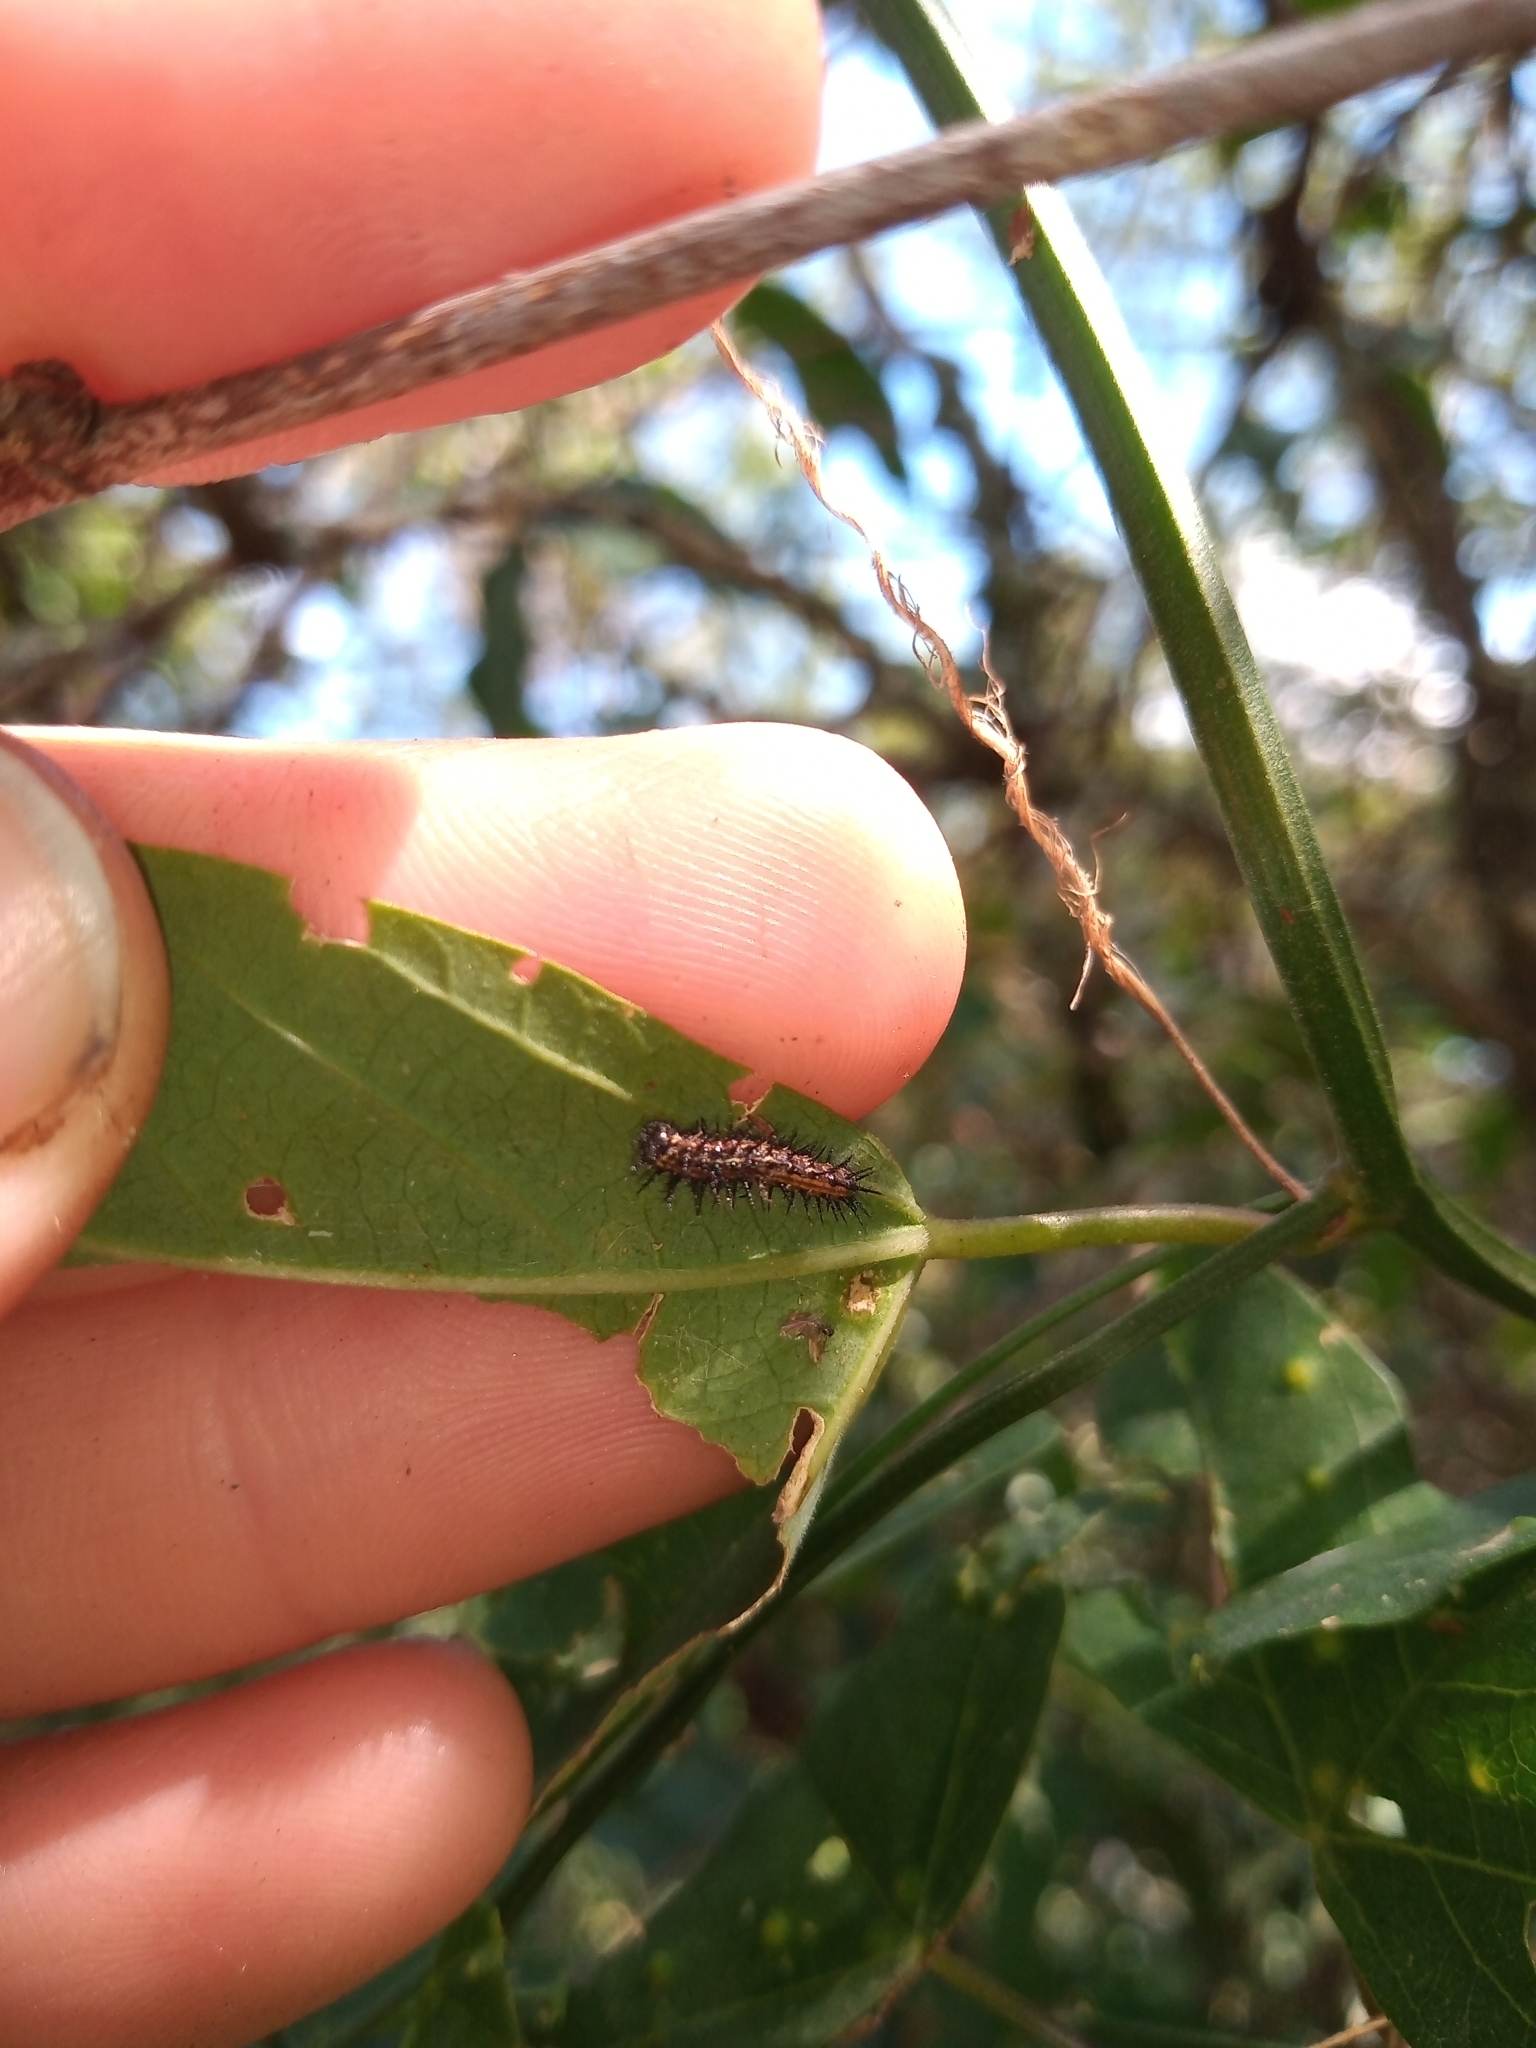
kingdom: Animalia
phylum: Arthropoda
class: Insecta
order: Lepidoptera
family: Nymphalidae
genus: Dione
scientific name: Dione vanillae
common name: Gulf fritillary
